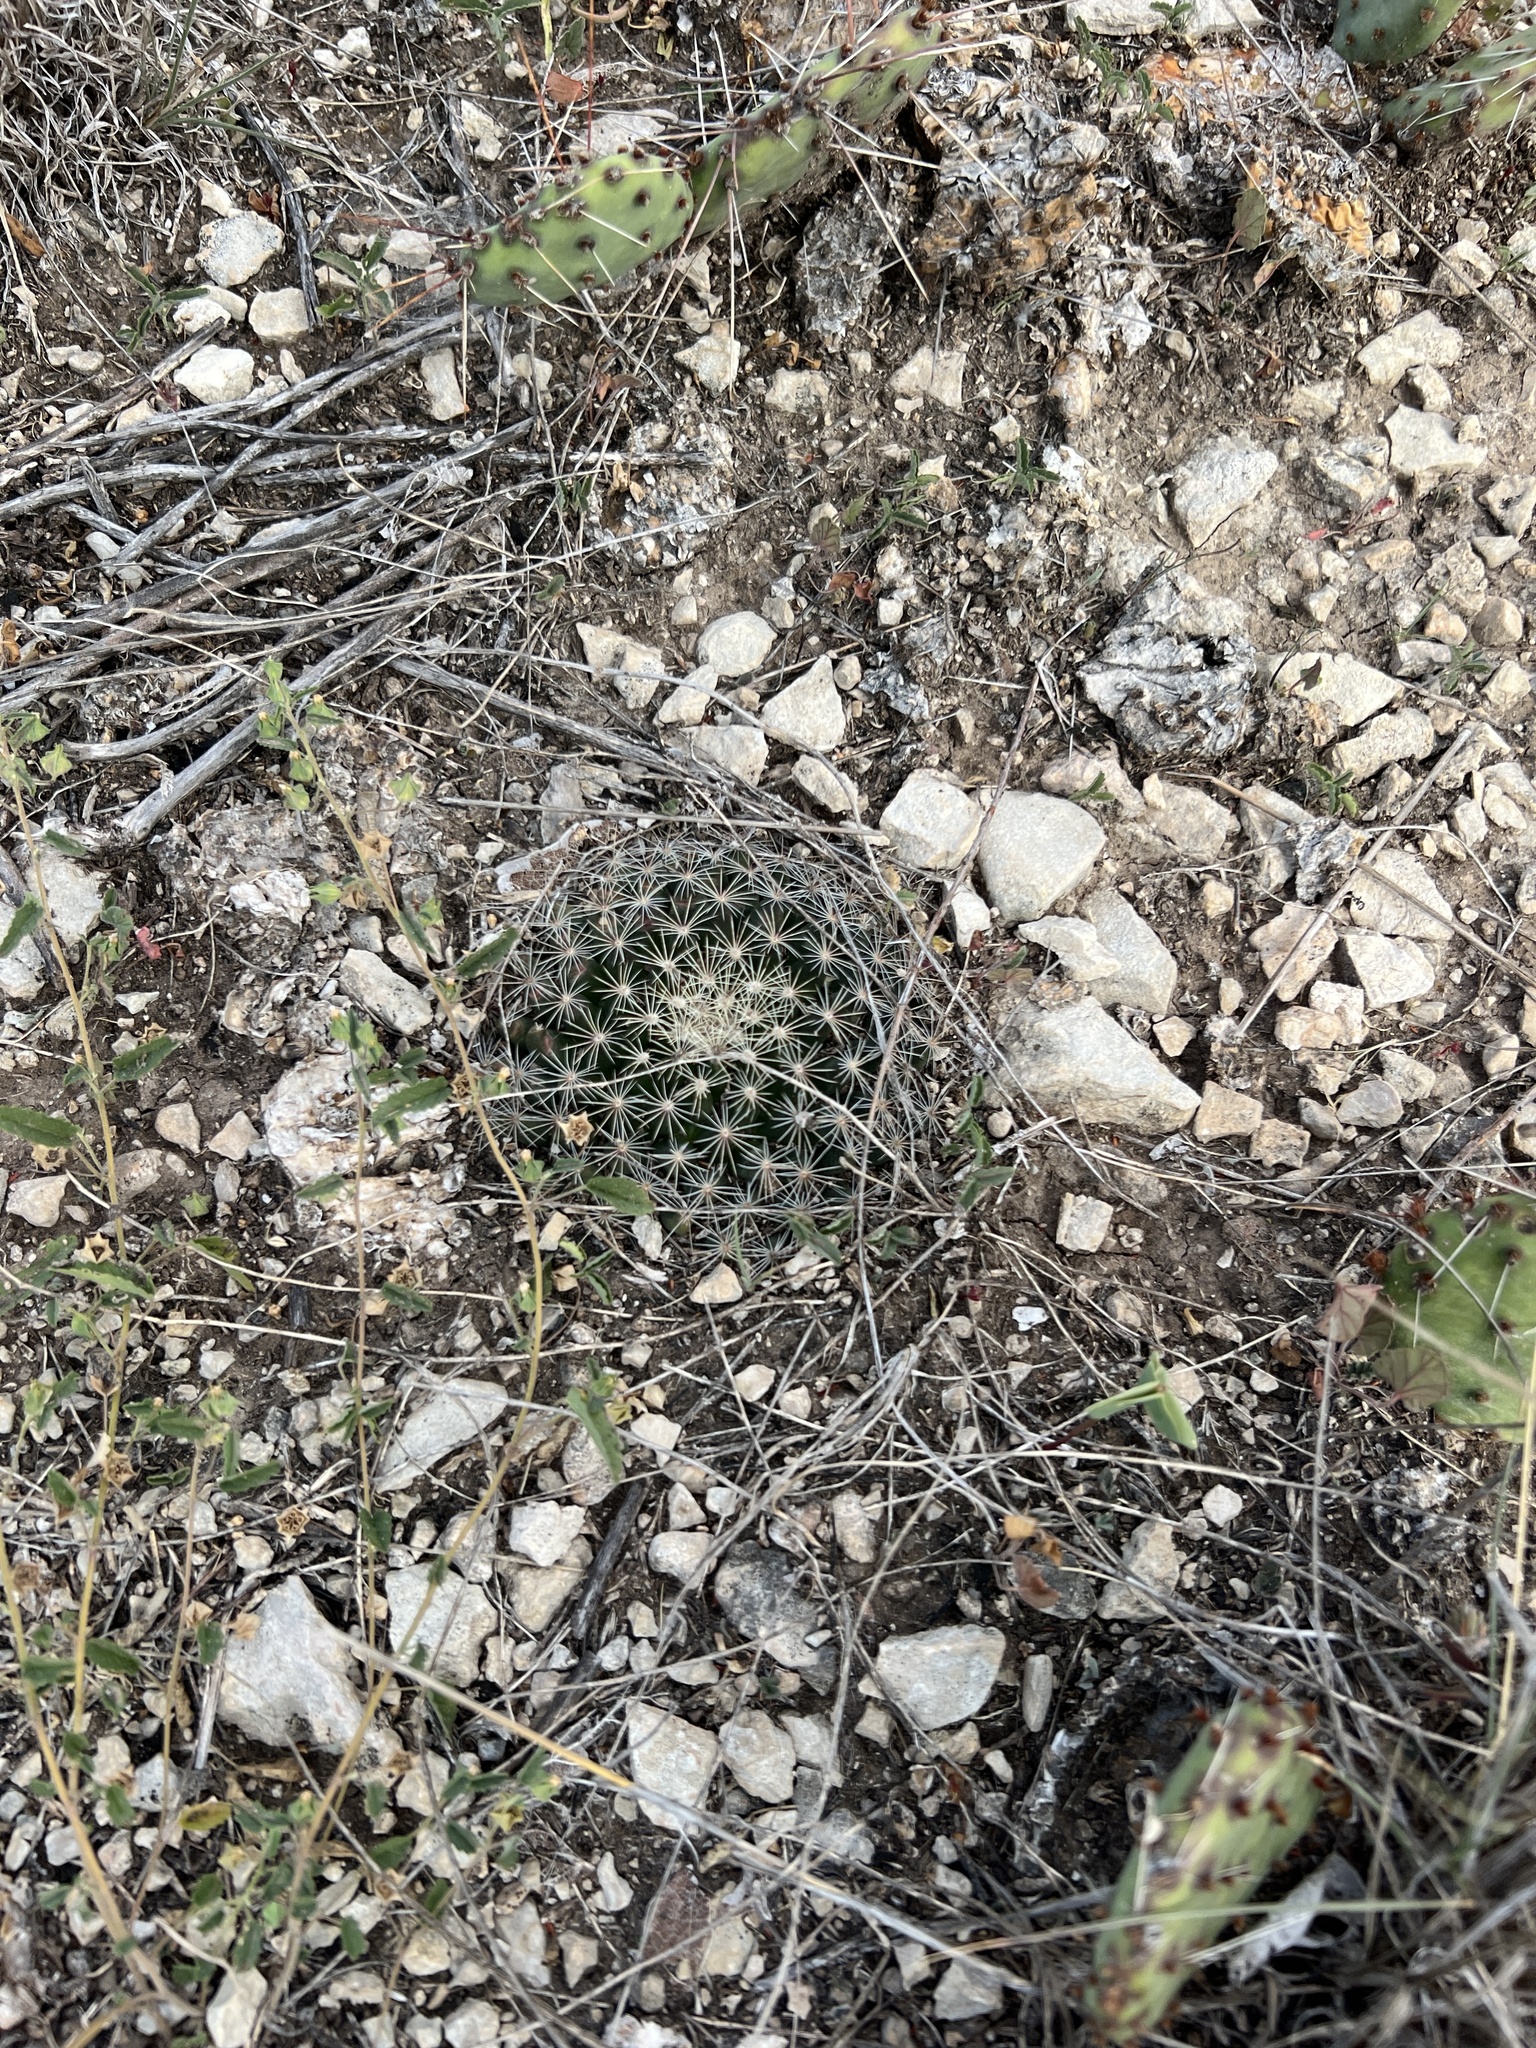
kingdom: Plantae
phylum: Tracheophyta
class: Magnoliopsida
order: Caryophyllales
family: Cactaceae
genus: Mammillaria
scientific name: Mammillaria heyderi
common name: Little nipple cactus
